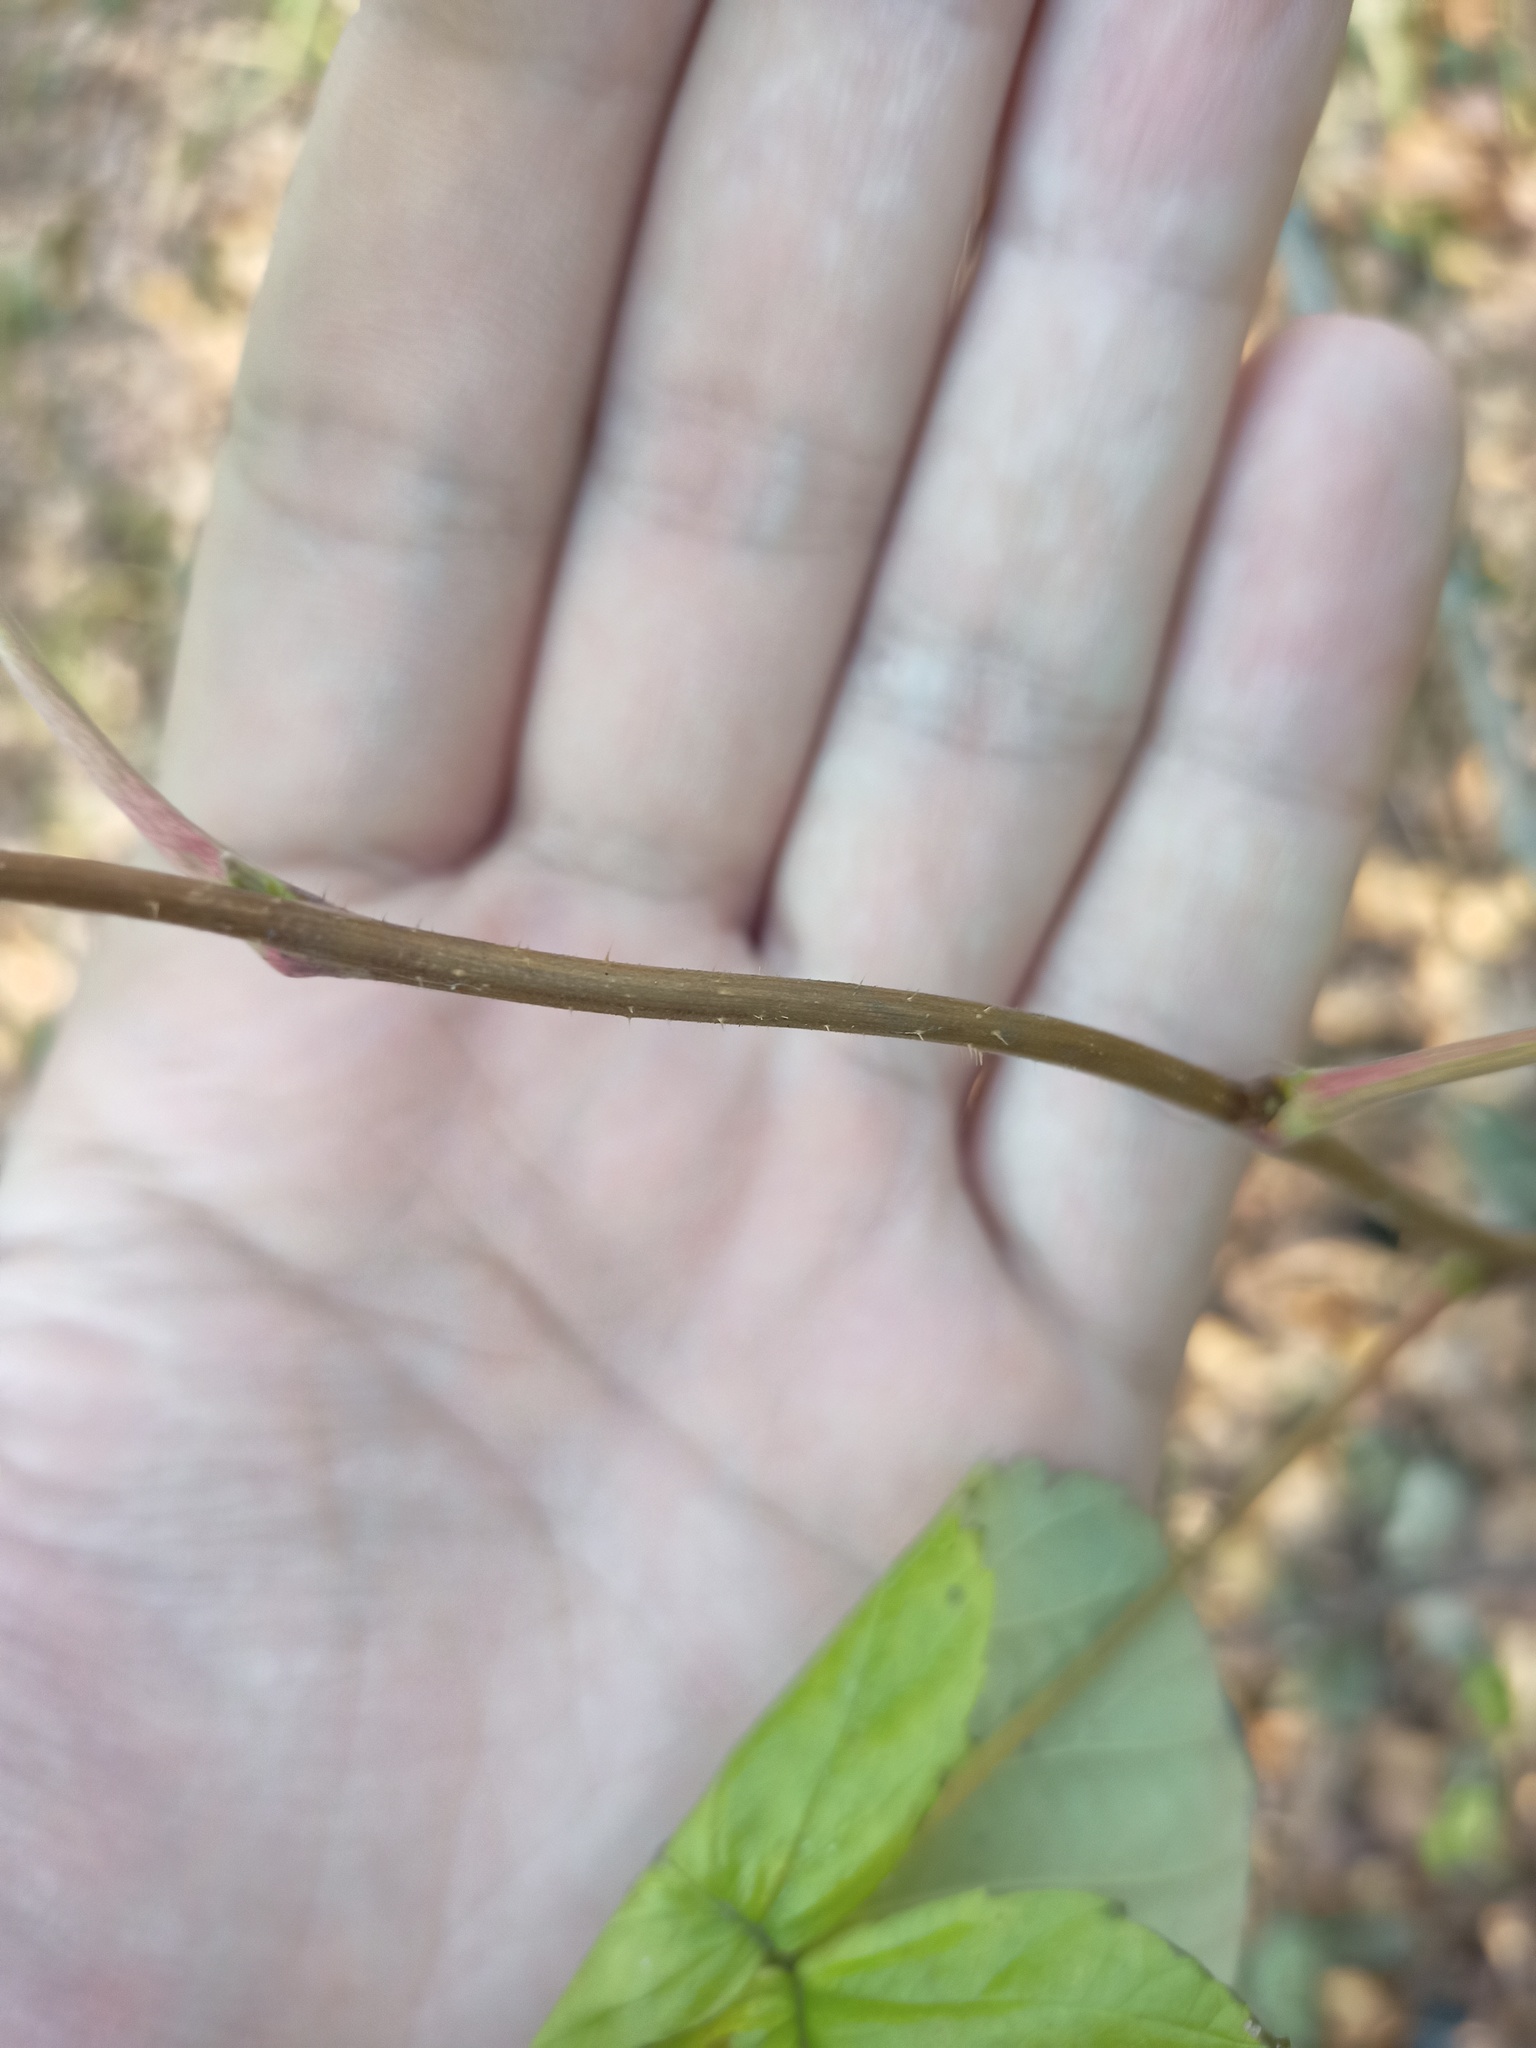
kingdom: Plantae
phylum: Tracheophyta
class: Magnoliopsida
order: Rosales
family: Rosaceae
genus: Rubus
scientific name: Rubus idaeus
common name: Raspberry
